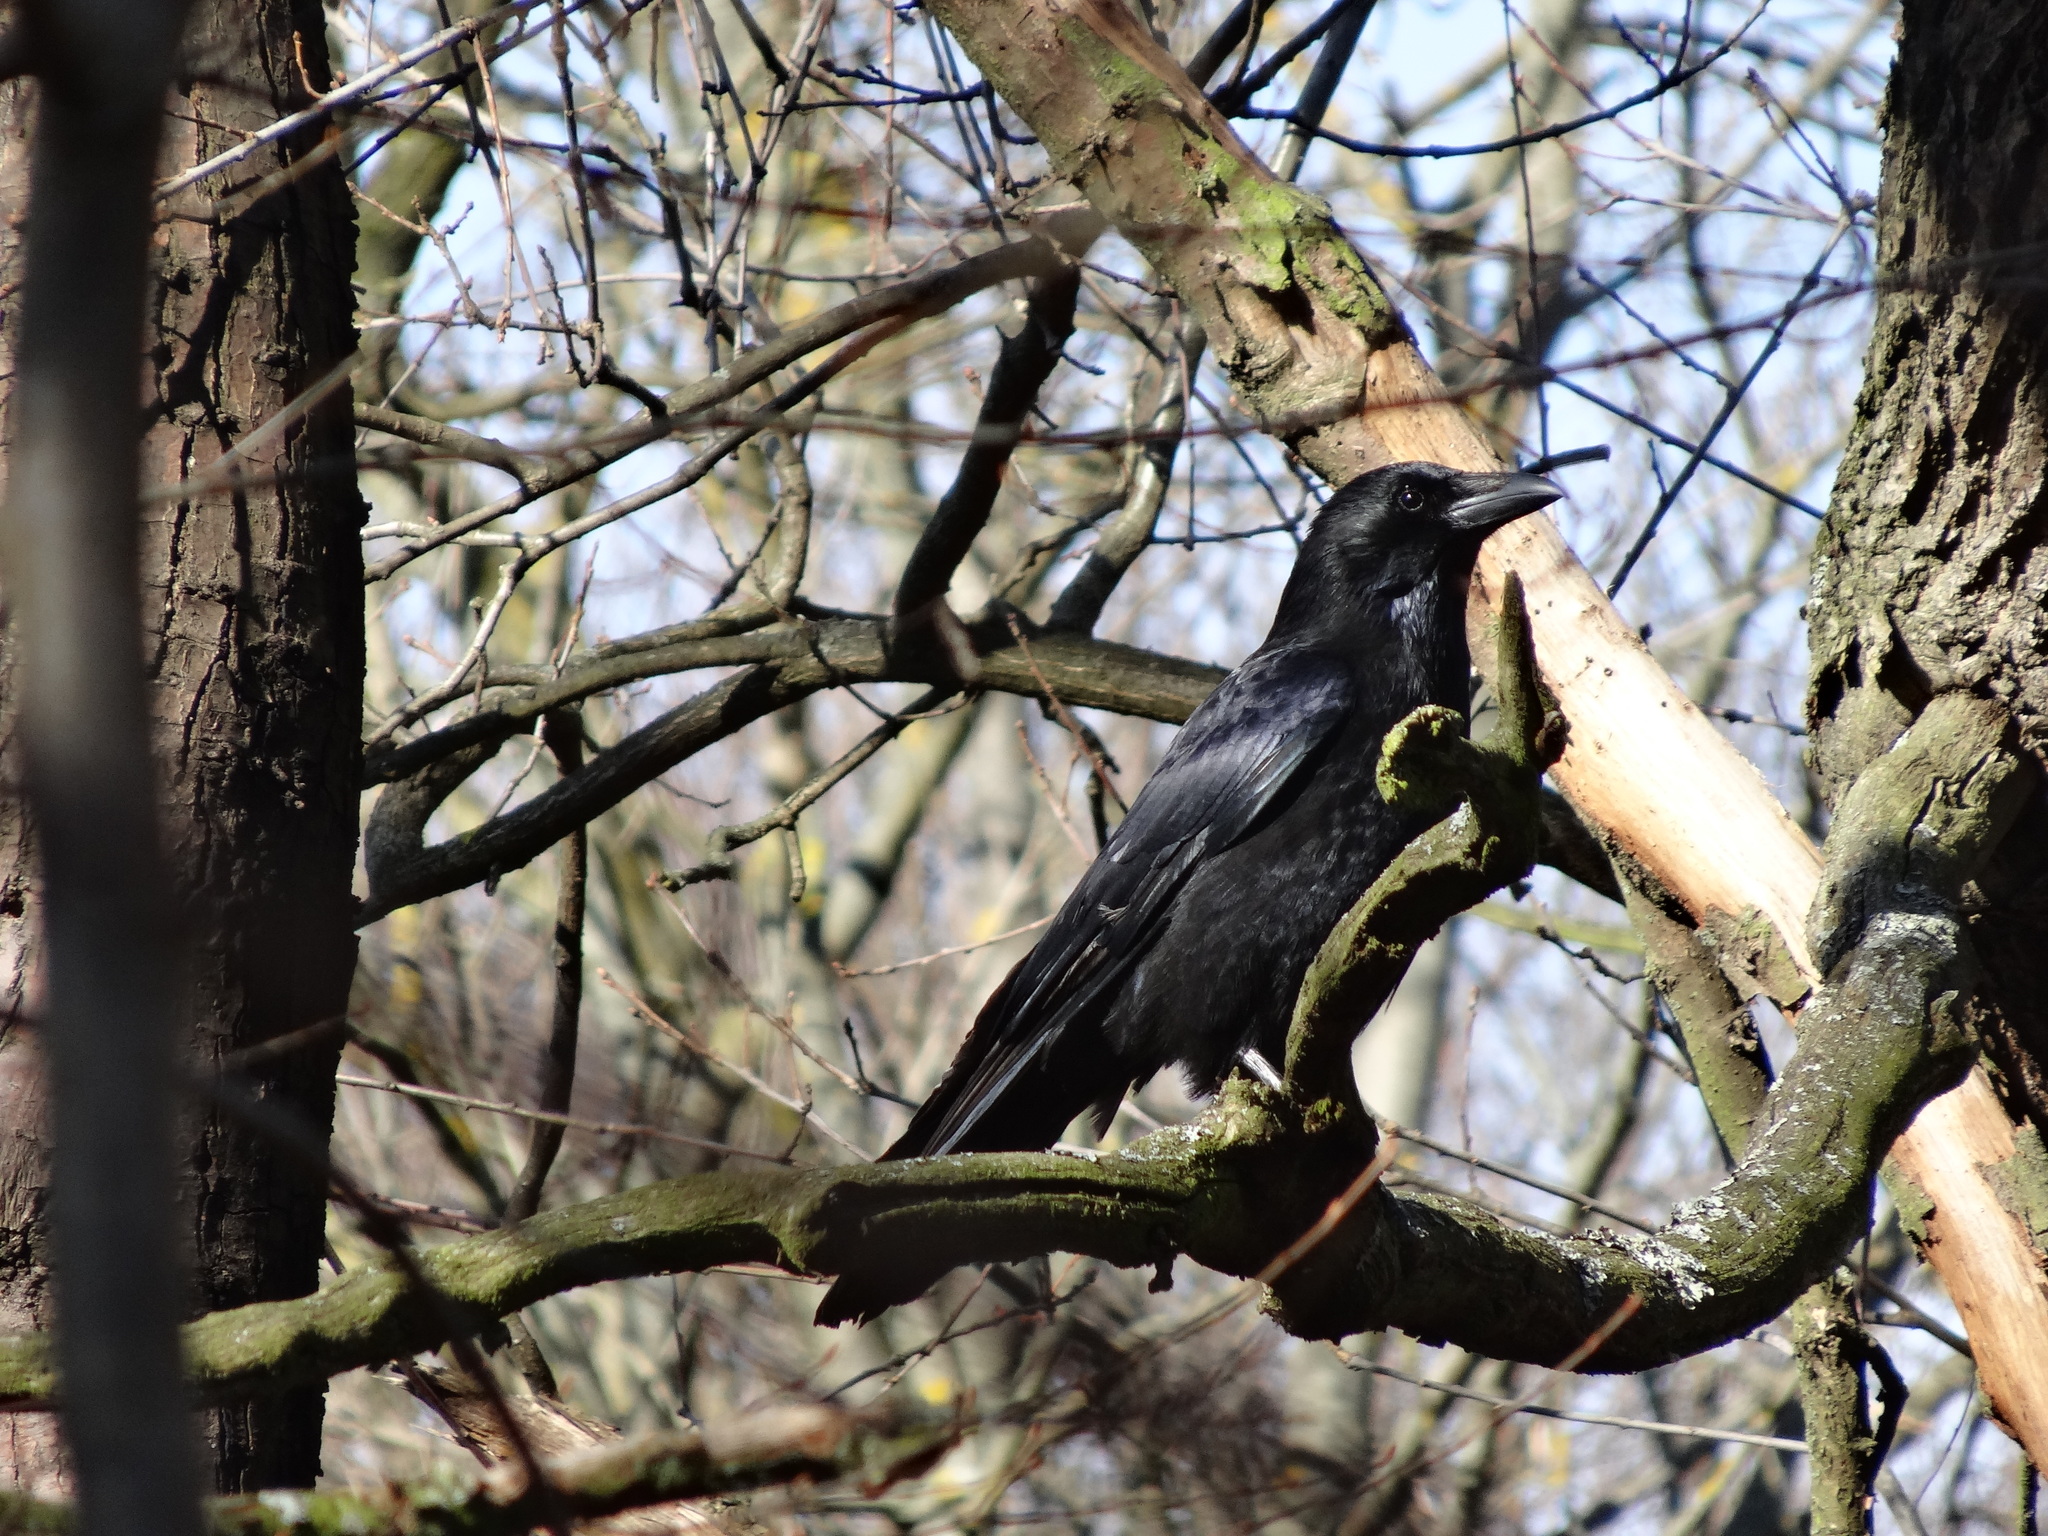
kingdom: Animalia
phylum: Chordata
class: Aves
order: Passeriformes
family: Corvidae
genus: Corvus
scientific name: Corvus corone
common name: Carrion crow
